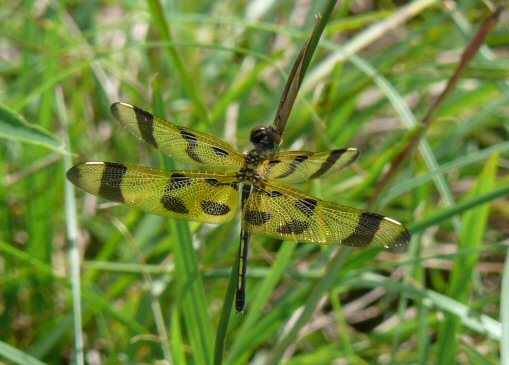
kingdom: Animalia
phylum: Arthropoda
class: Insecta
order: Odonata
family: Libellulidae
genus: Celithemis
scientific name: Celithemis eponina
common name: Halloween pennant
